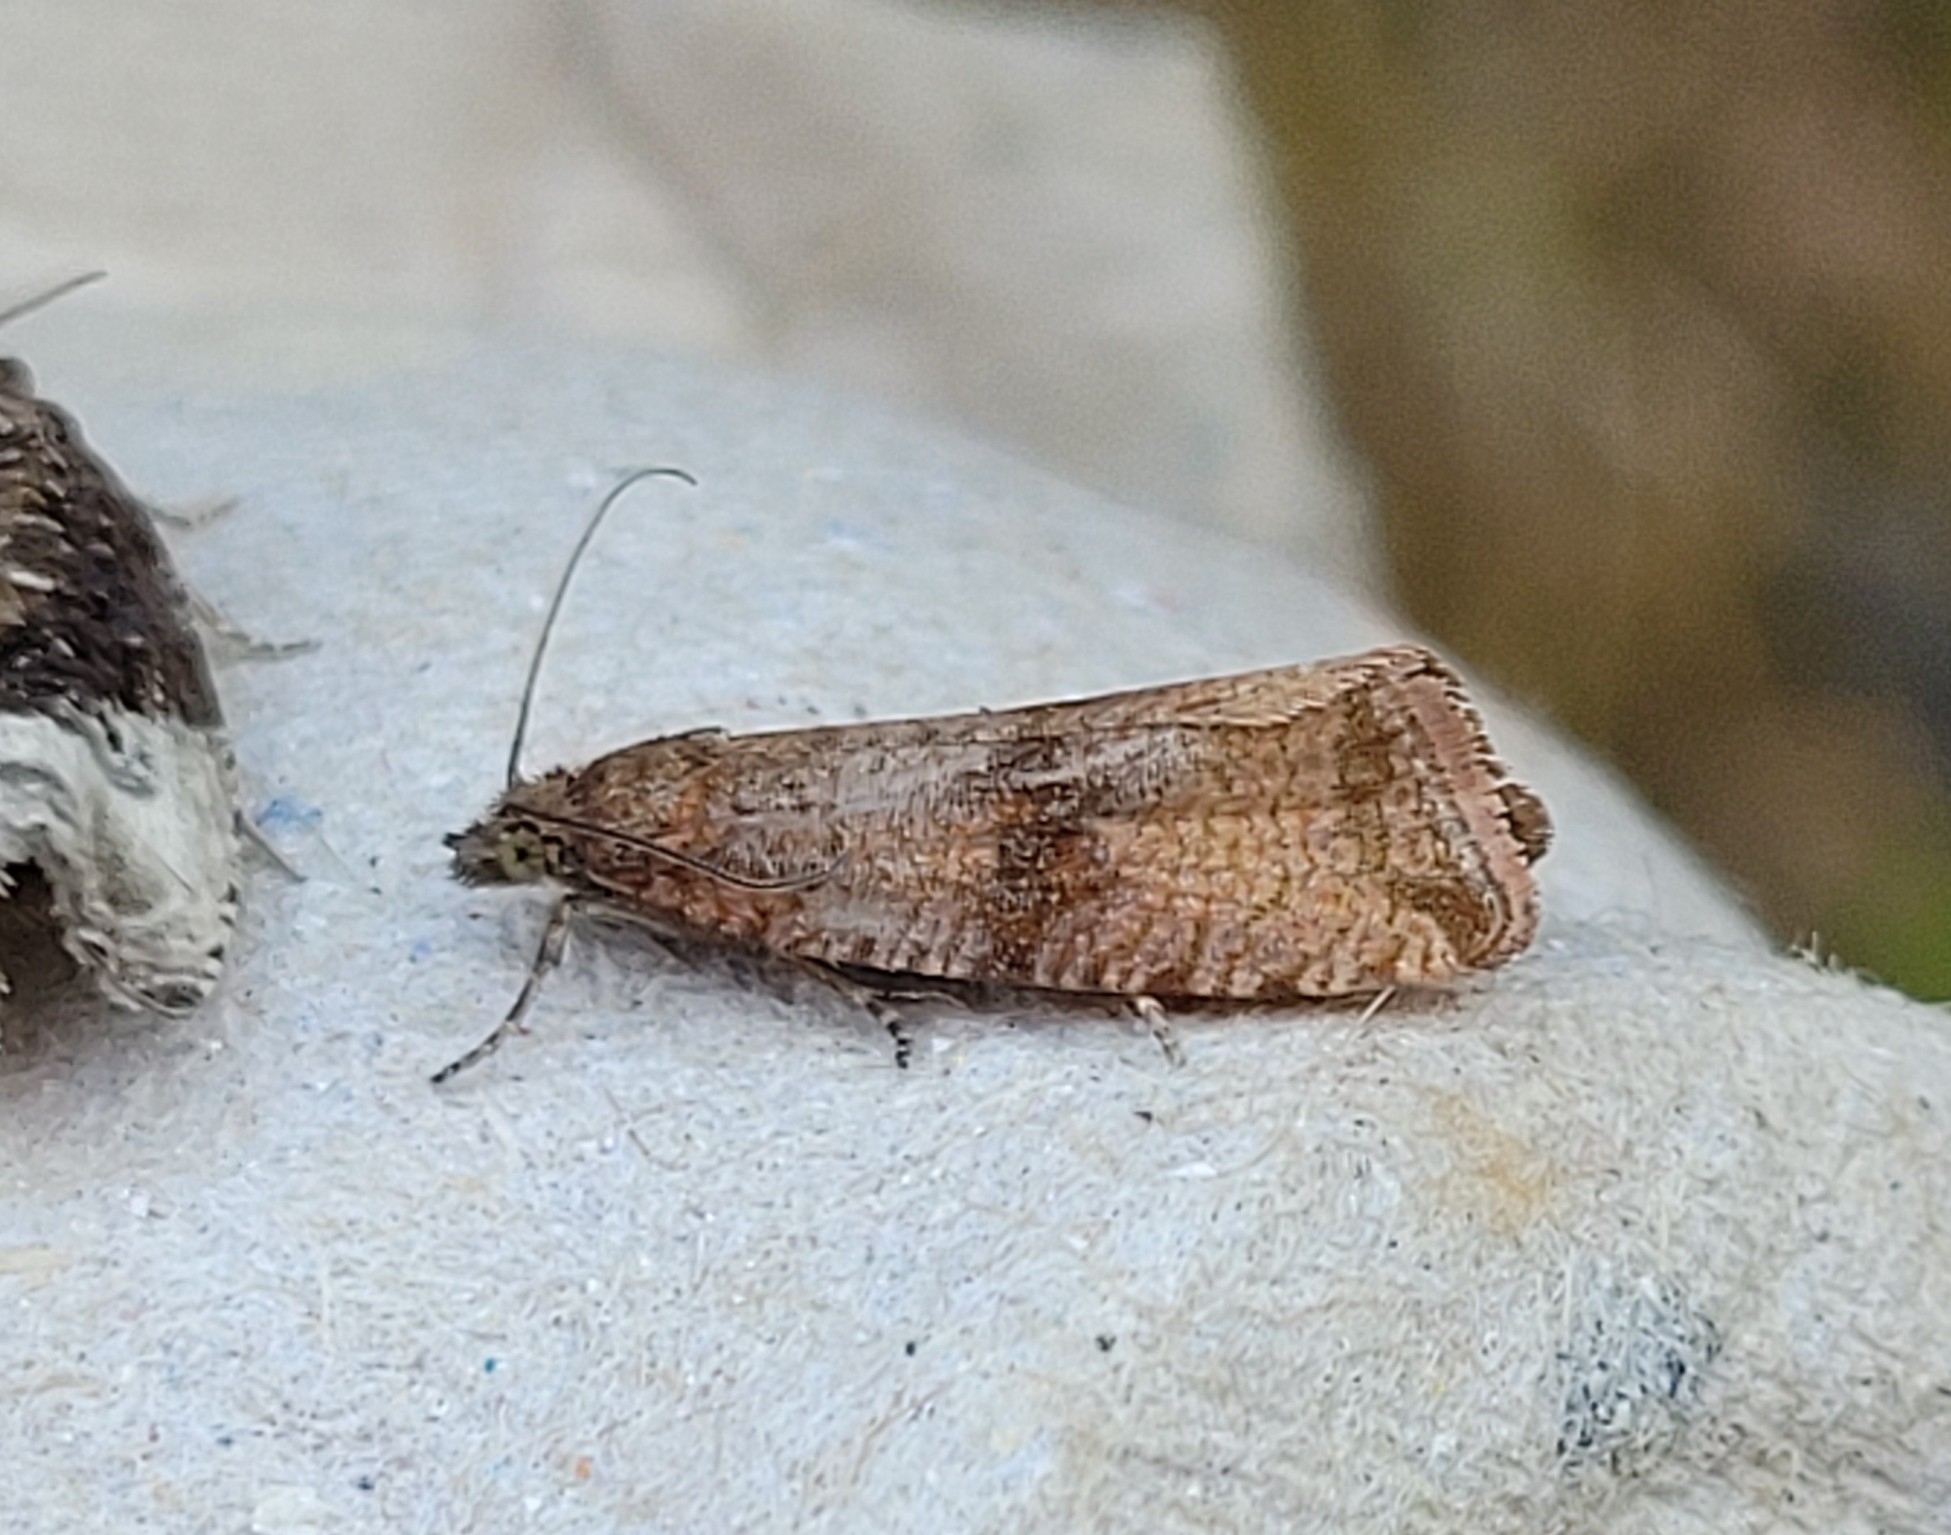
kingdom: Animalia
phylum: Arthropoda
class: Insecta
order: Lepidoptera
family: Tortricidae
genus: Celypha
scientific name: Celypha striana
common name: Barred marble
